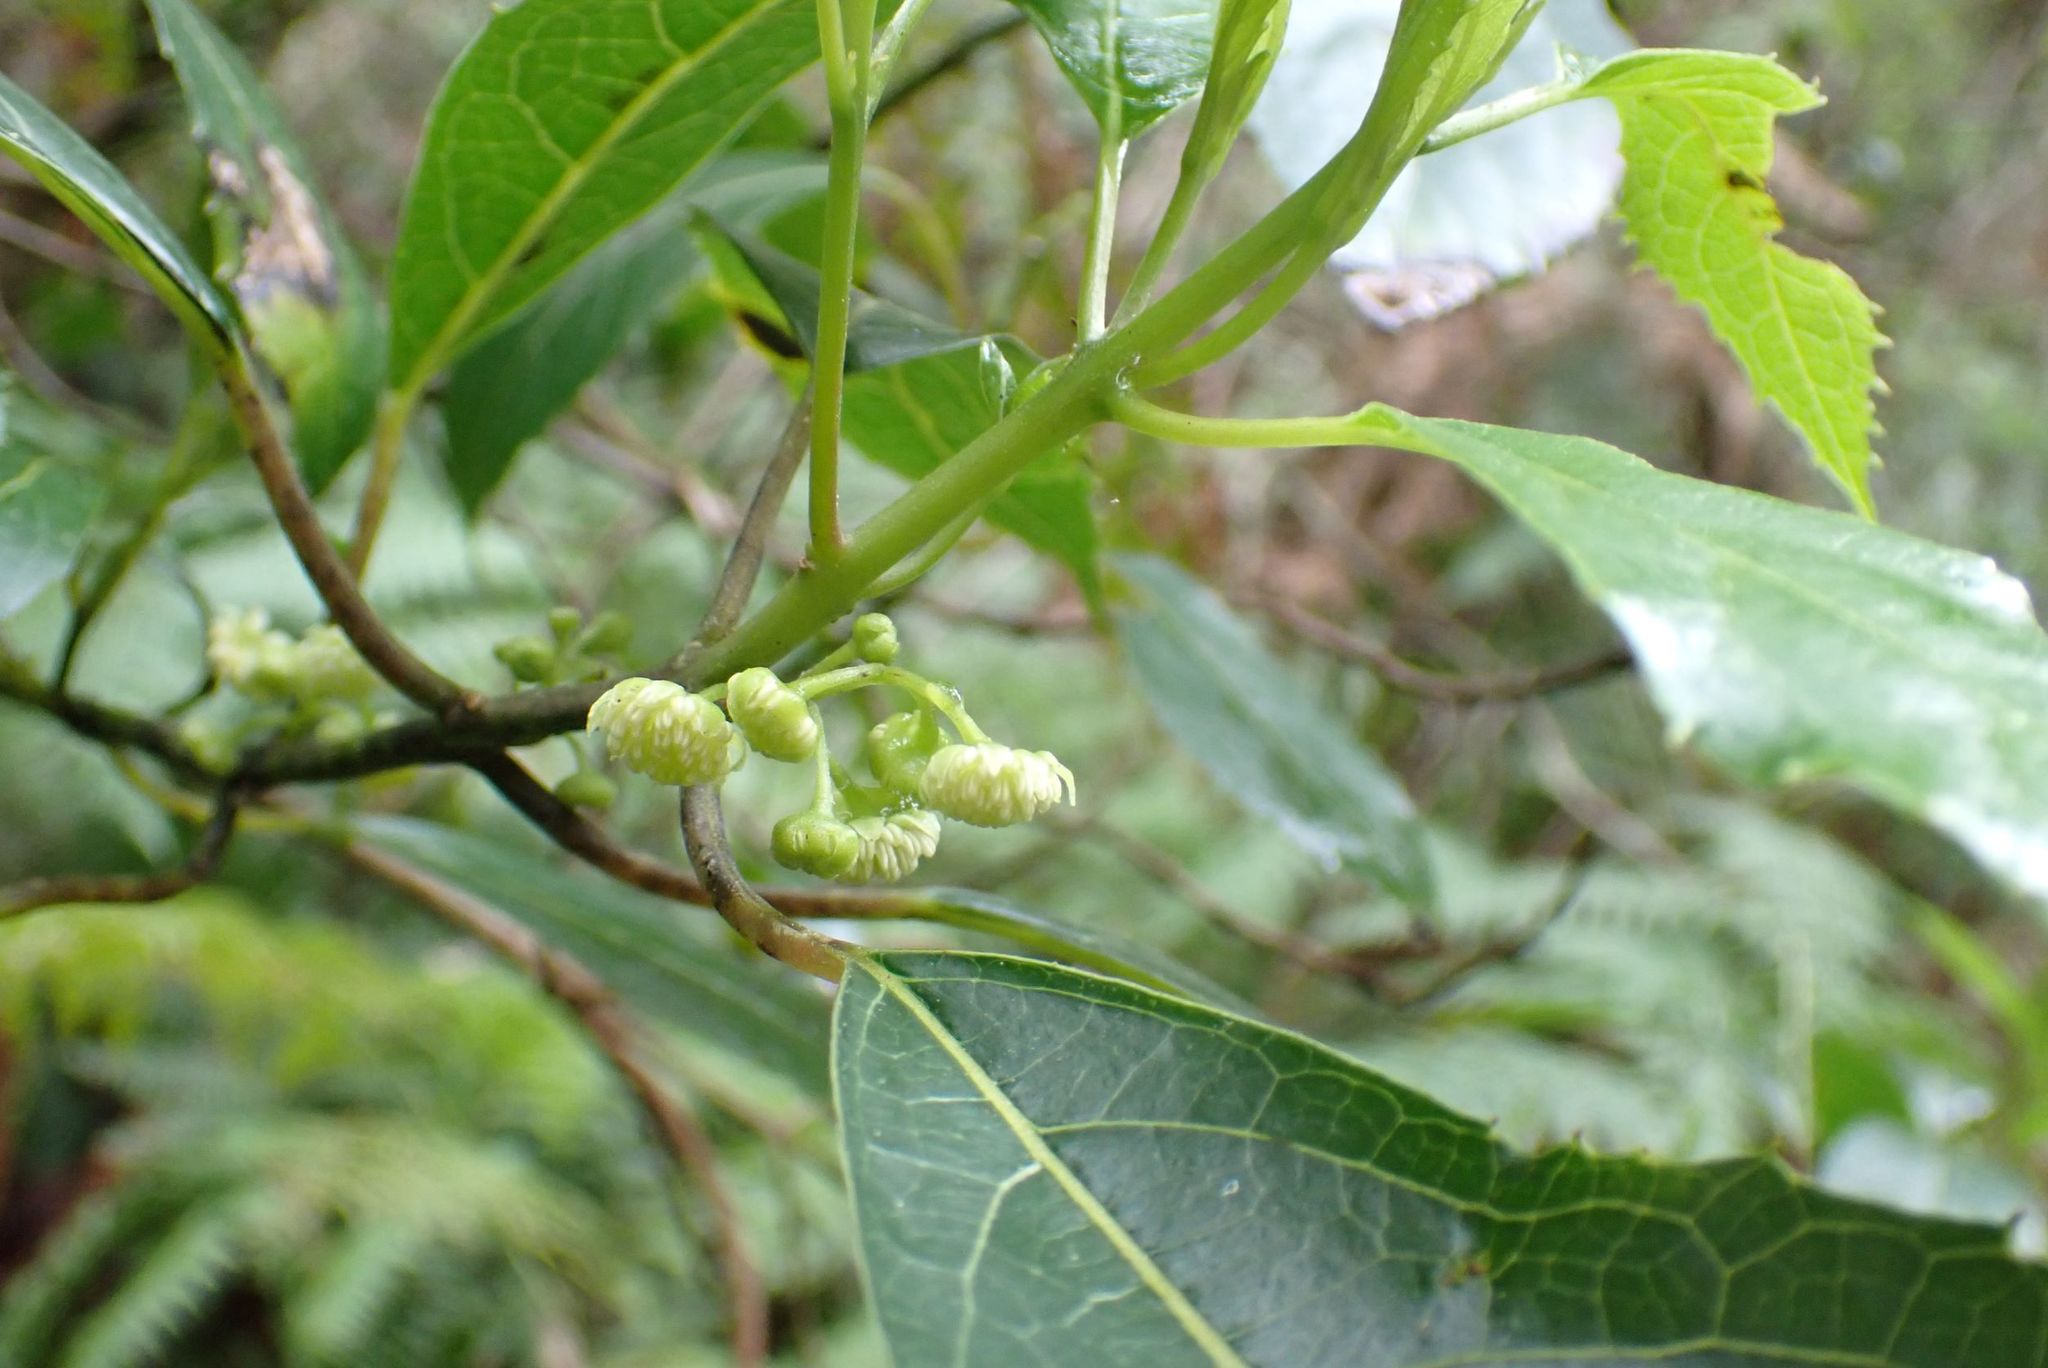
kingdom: Plantae
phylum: Tracheophyta
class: Magnoliopsida
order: Laurales
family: Monimiaceae
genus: Hedycarya
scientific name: Hedycarya angustifolia
